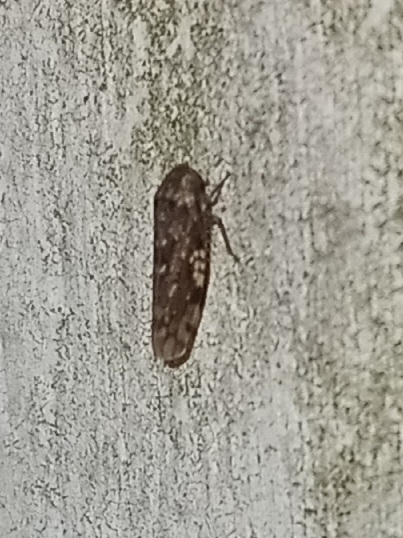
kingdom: Animalia
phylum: Arthropoda
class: Insecta
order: Hemiptera
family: Cicadellidae
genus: Xestocephalus
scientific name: Xestocephalus tessellatus
